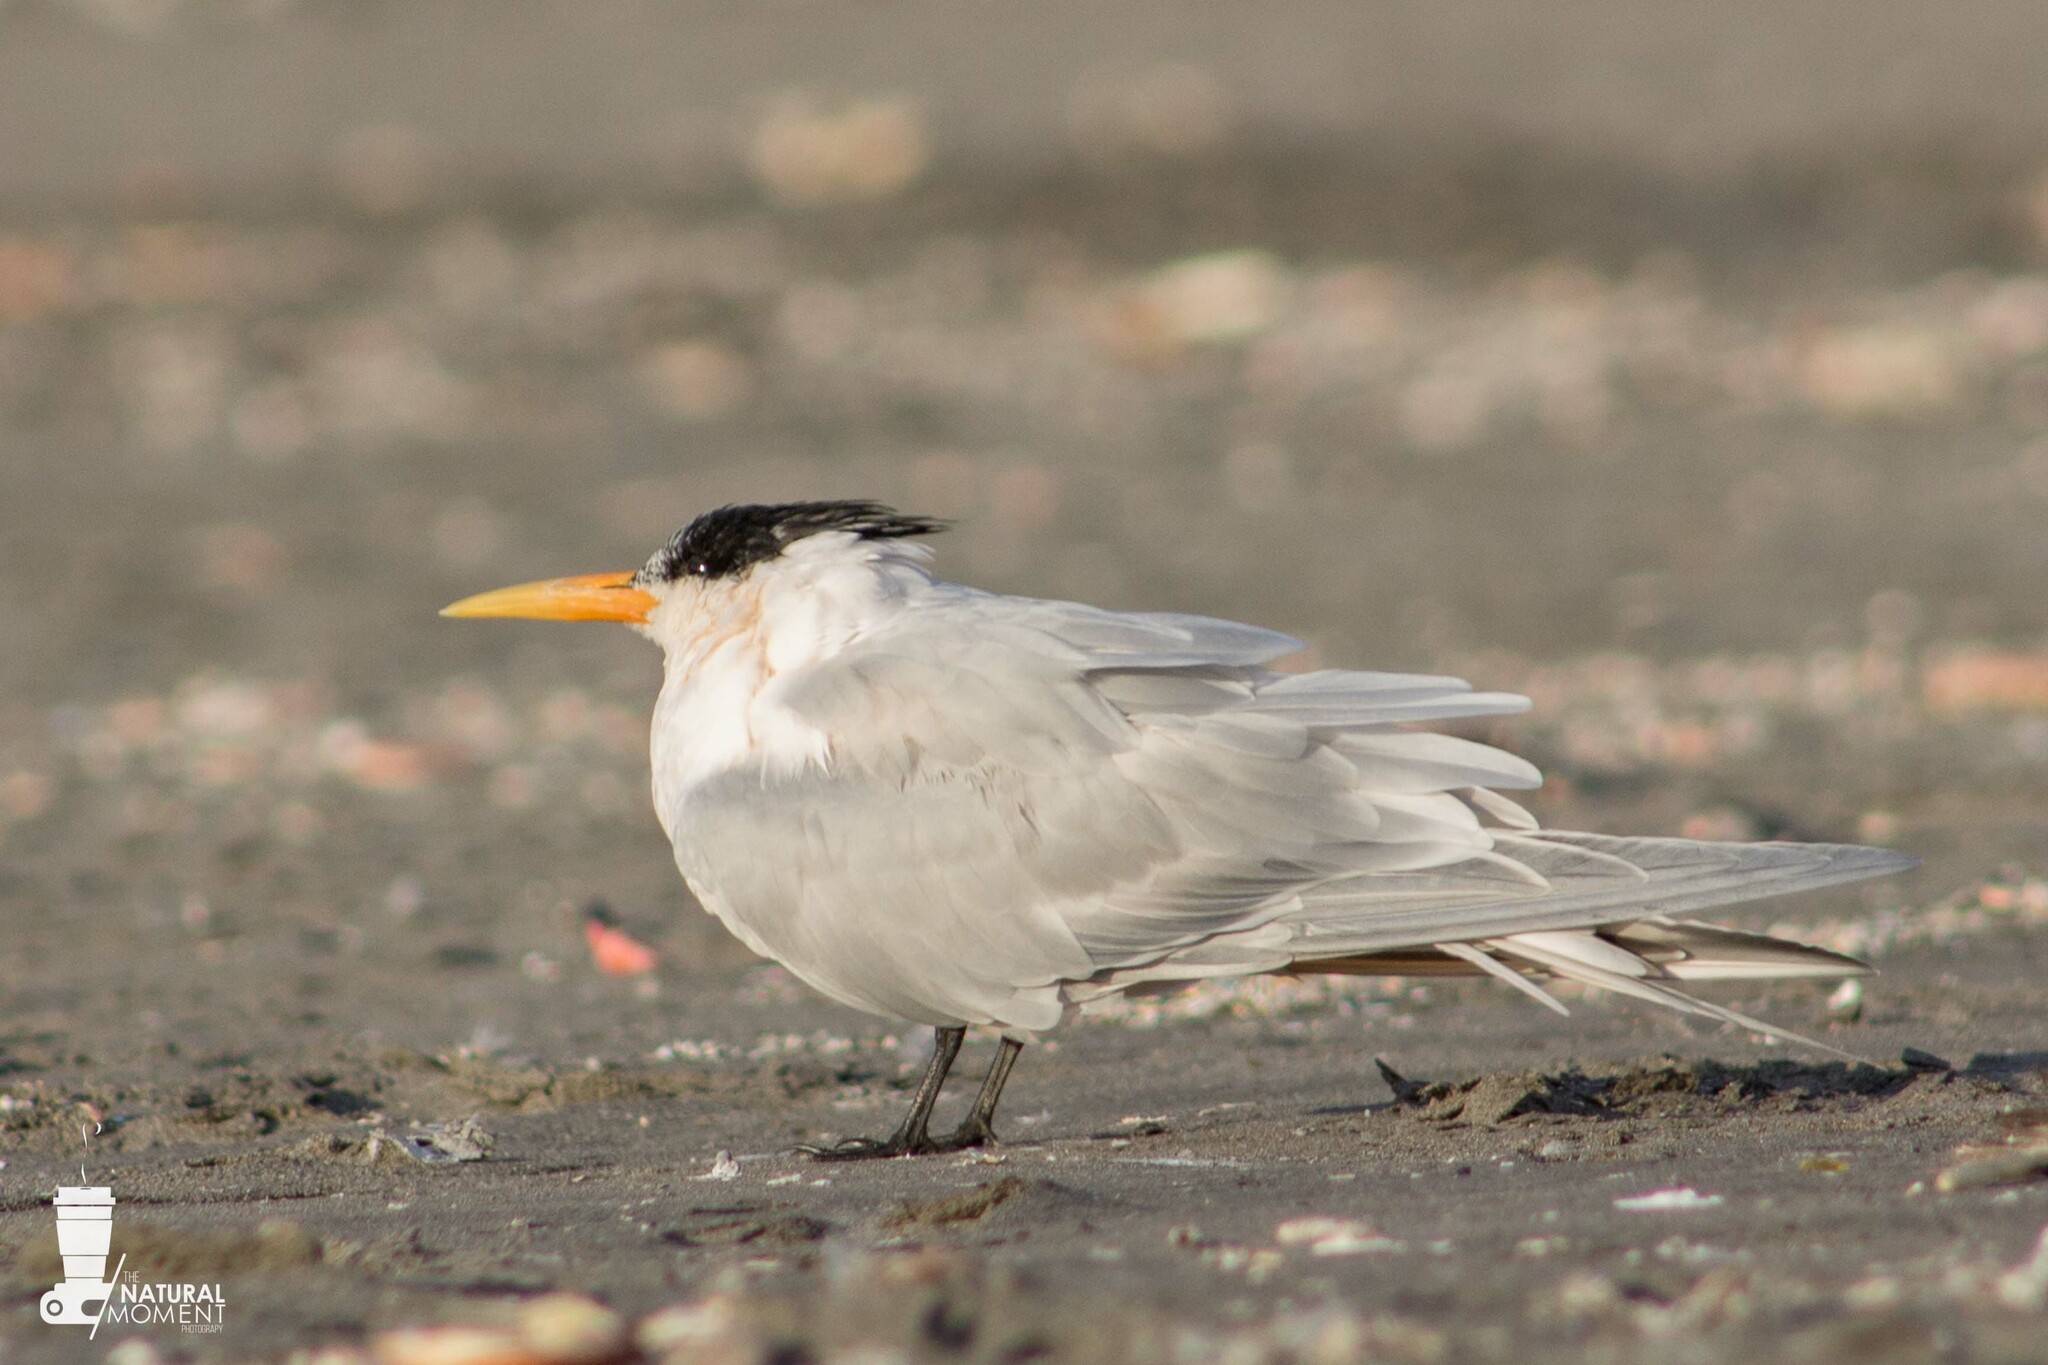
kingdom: Animalia
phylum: Chordata
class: Aves
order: Charadriiformes
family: Laridae
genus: Thalasseus
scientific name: Thalasseus elegans
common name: Elegant tern
